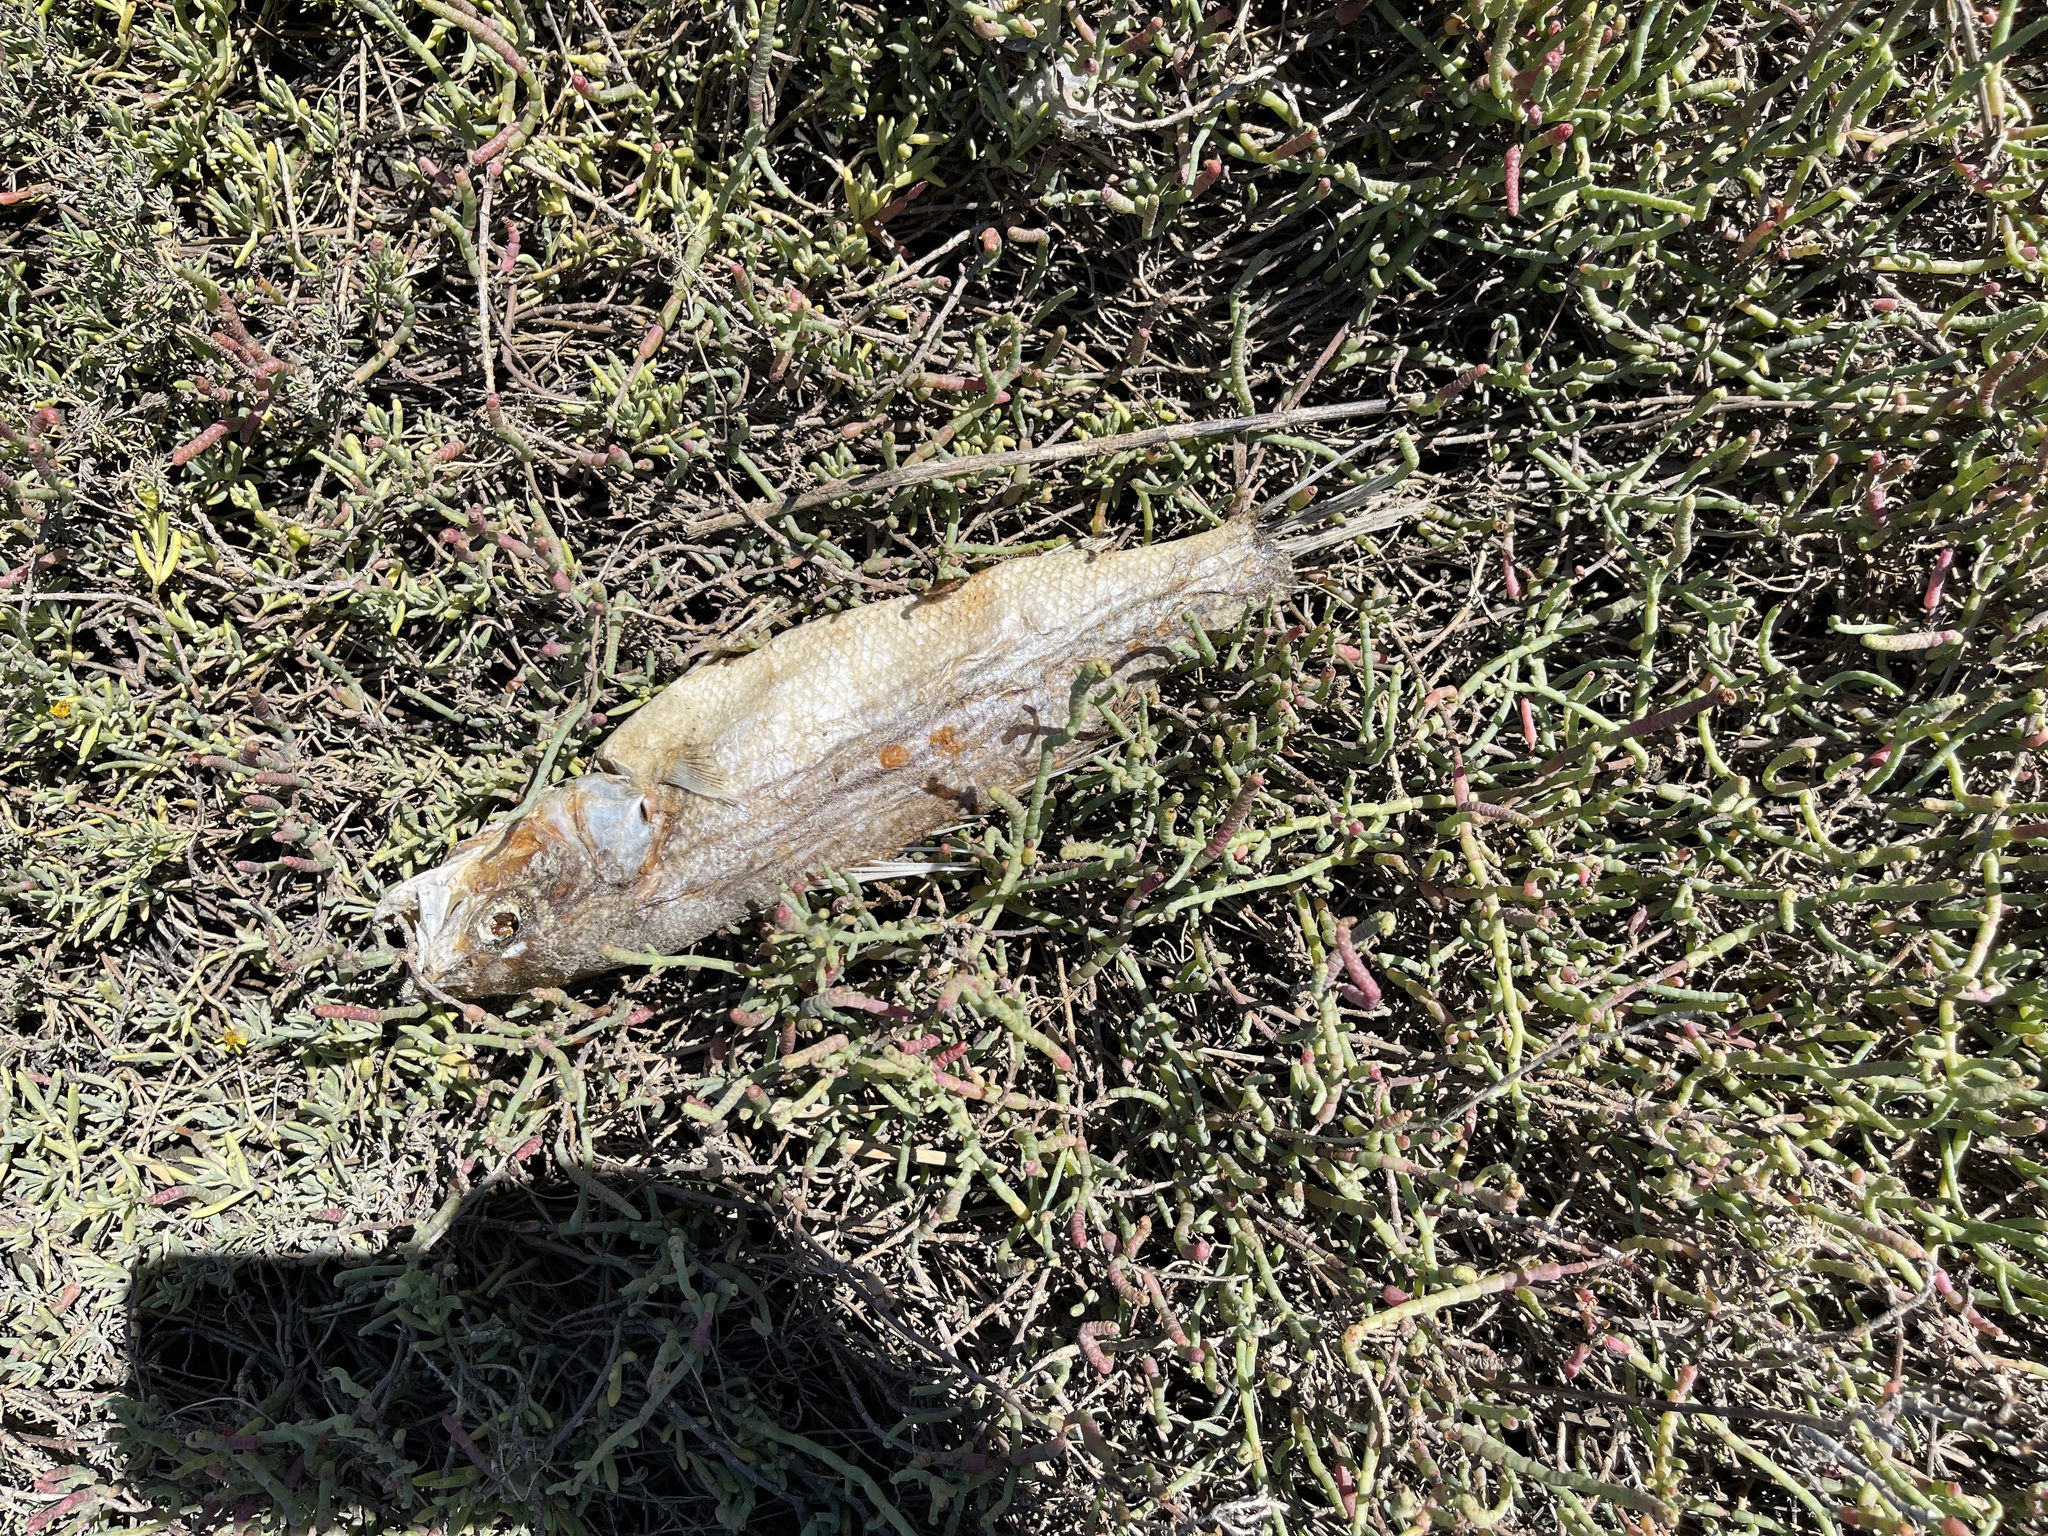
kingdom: Animalia
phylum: Chordata
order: Perciformes
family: Moronidae
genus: Morone
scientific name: Morone saxatilis
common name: Striped bass
